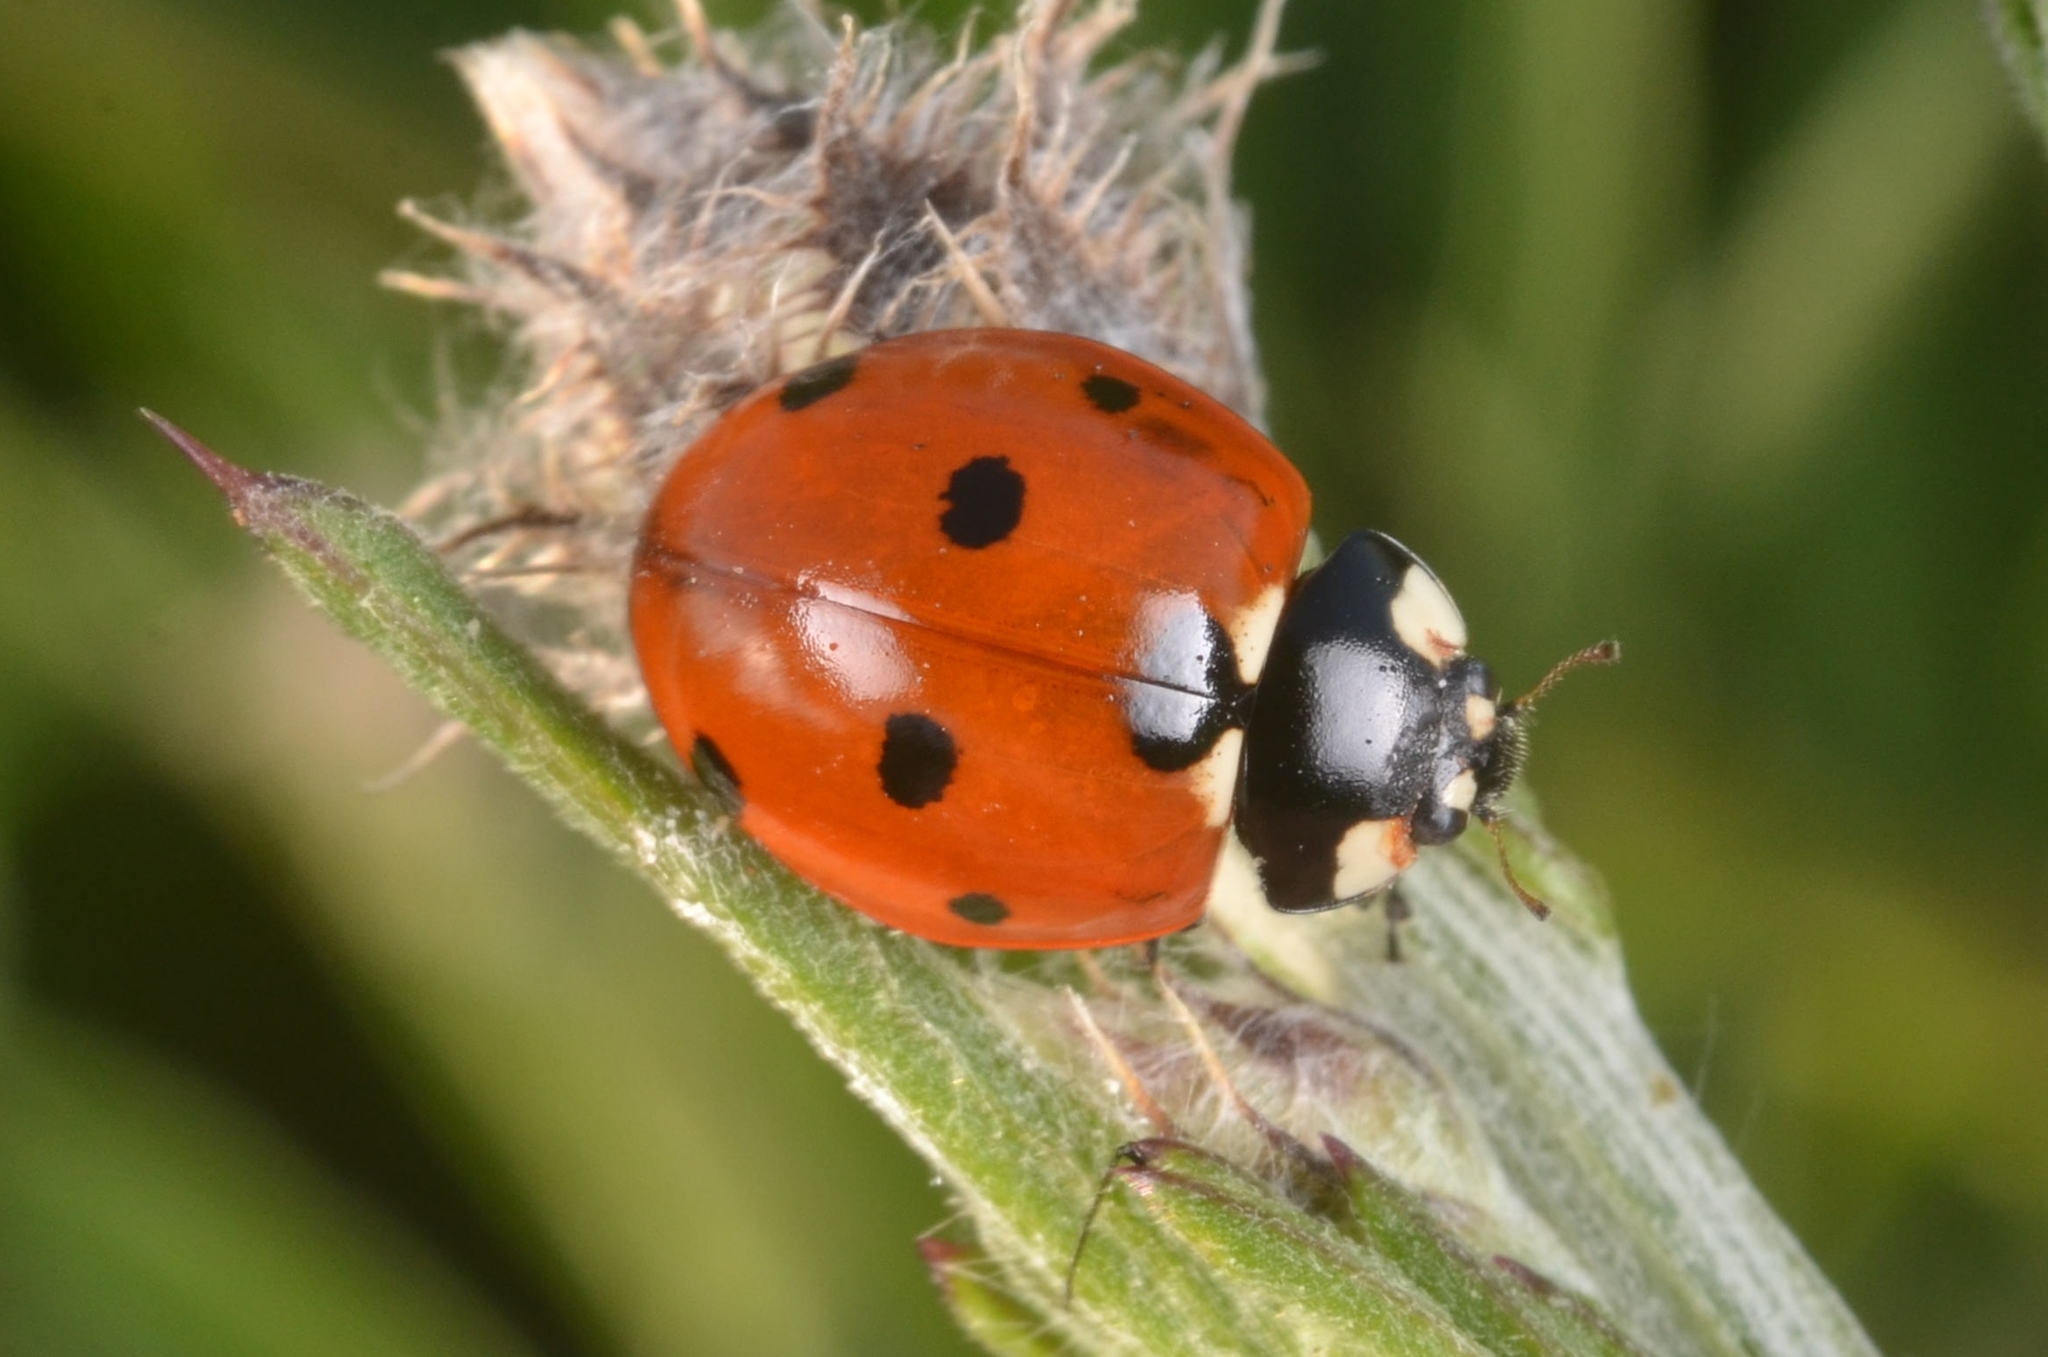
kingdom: Animalia
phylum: Arthropoda
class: Insecta
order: Coleoptera
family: Coccinellidae
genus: Coccinella
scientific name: Coccinella septempunctata
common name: Sevenspotted lady beetle
